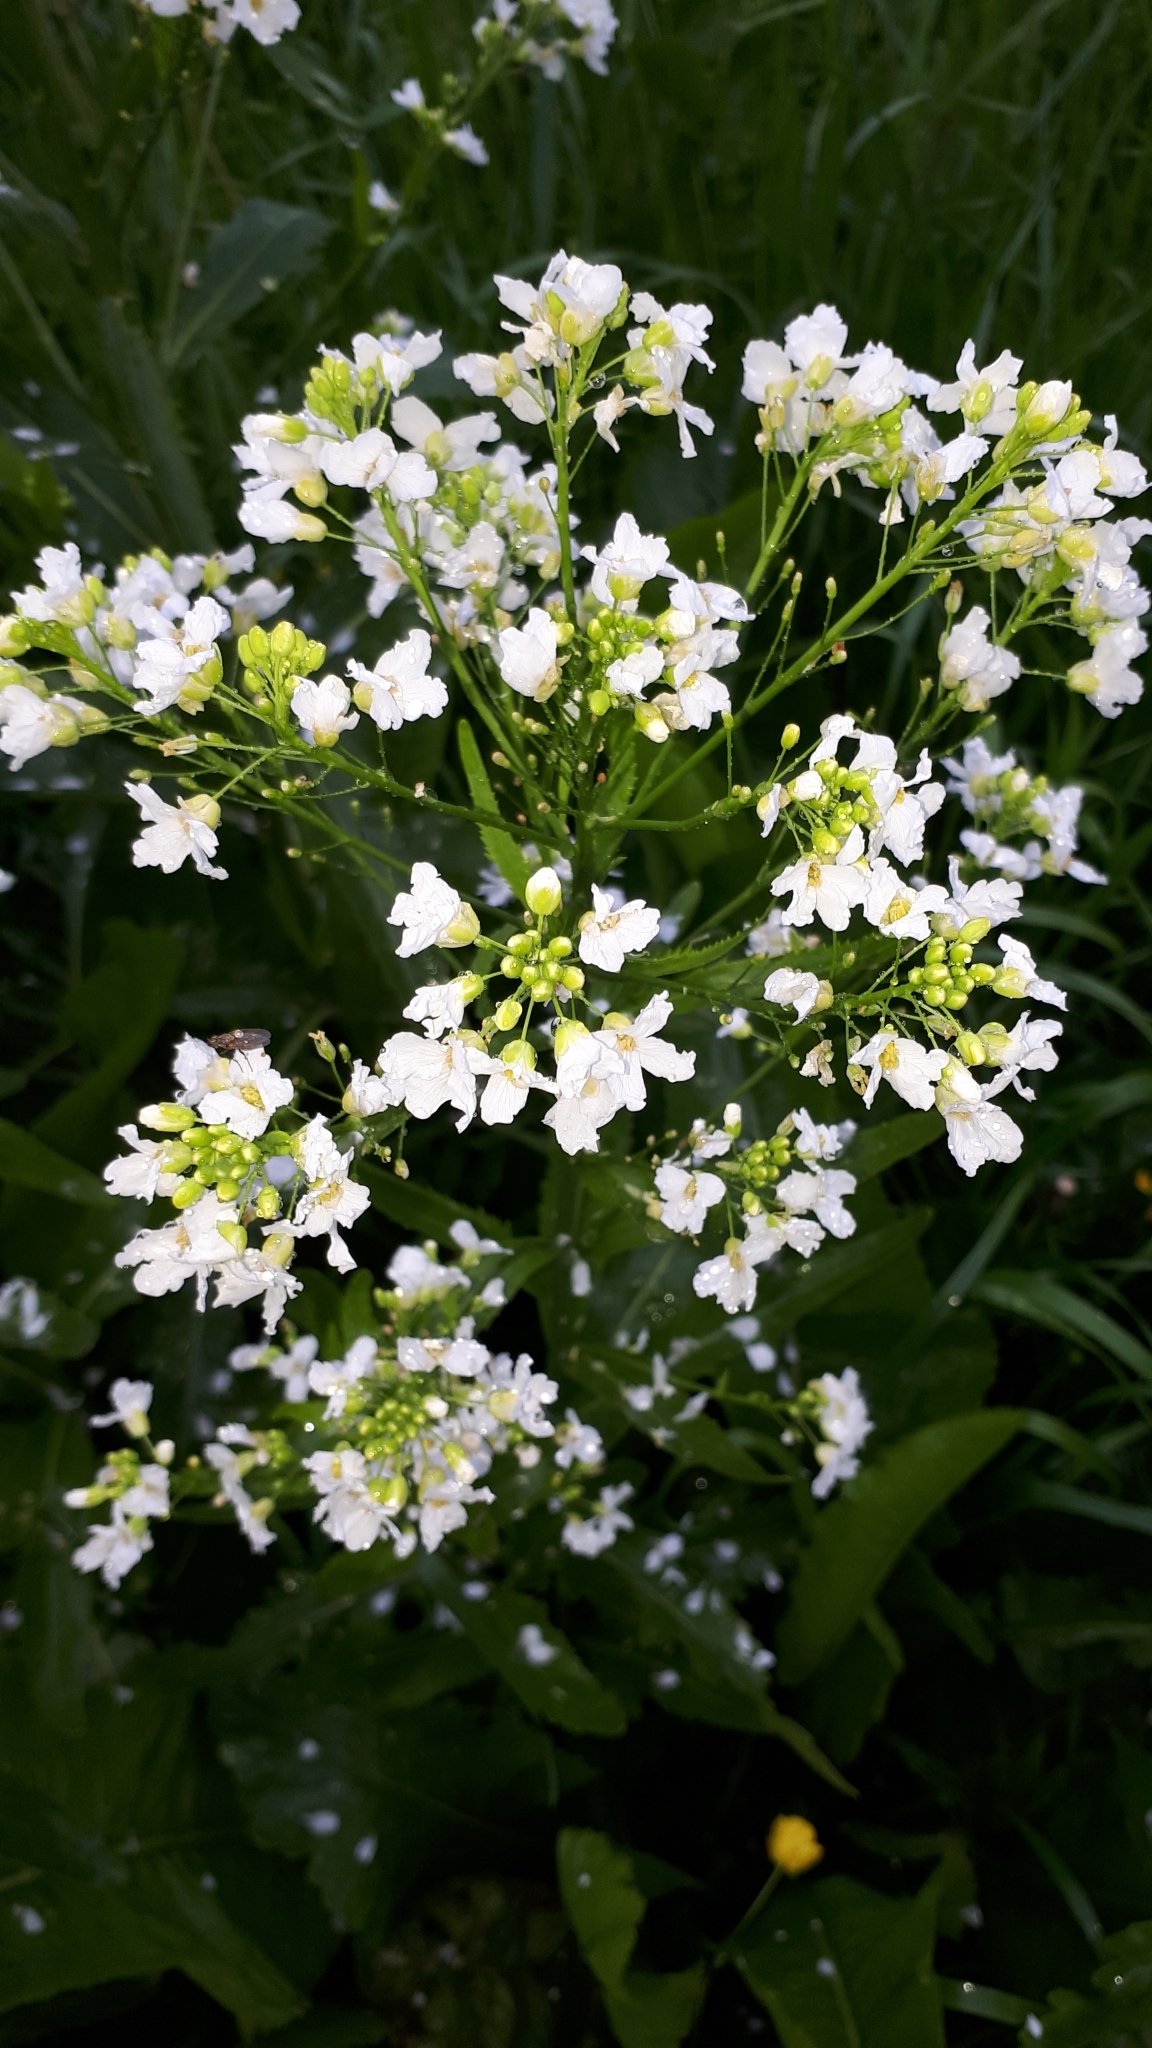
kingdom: Plantae
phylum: Tracheophyta
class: Magnoliopsida
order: Brassicales
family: Brassicaceae
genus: Armoracia
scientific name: Armoracia rusticana
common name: Horseradish
